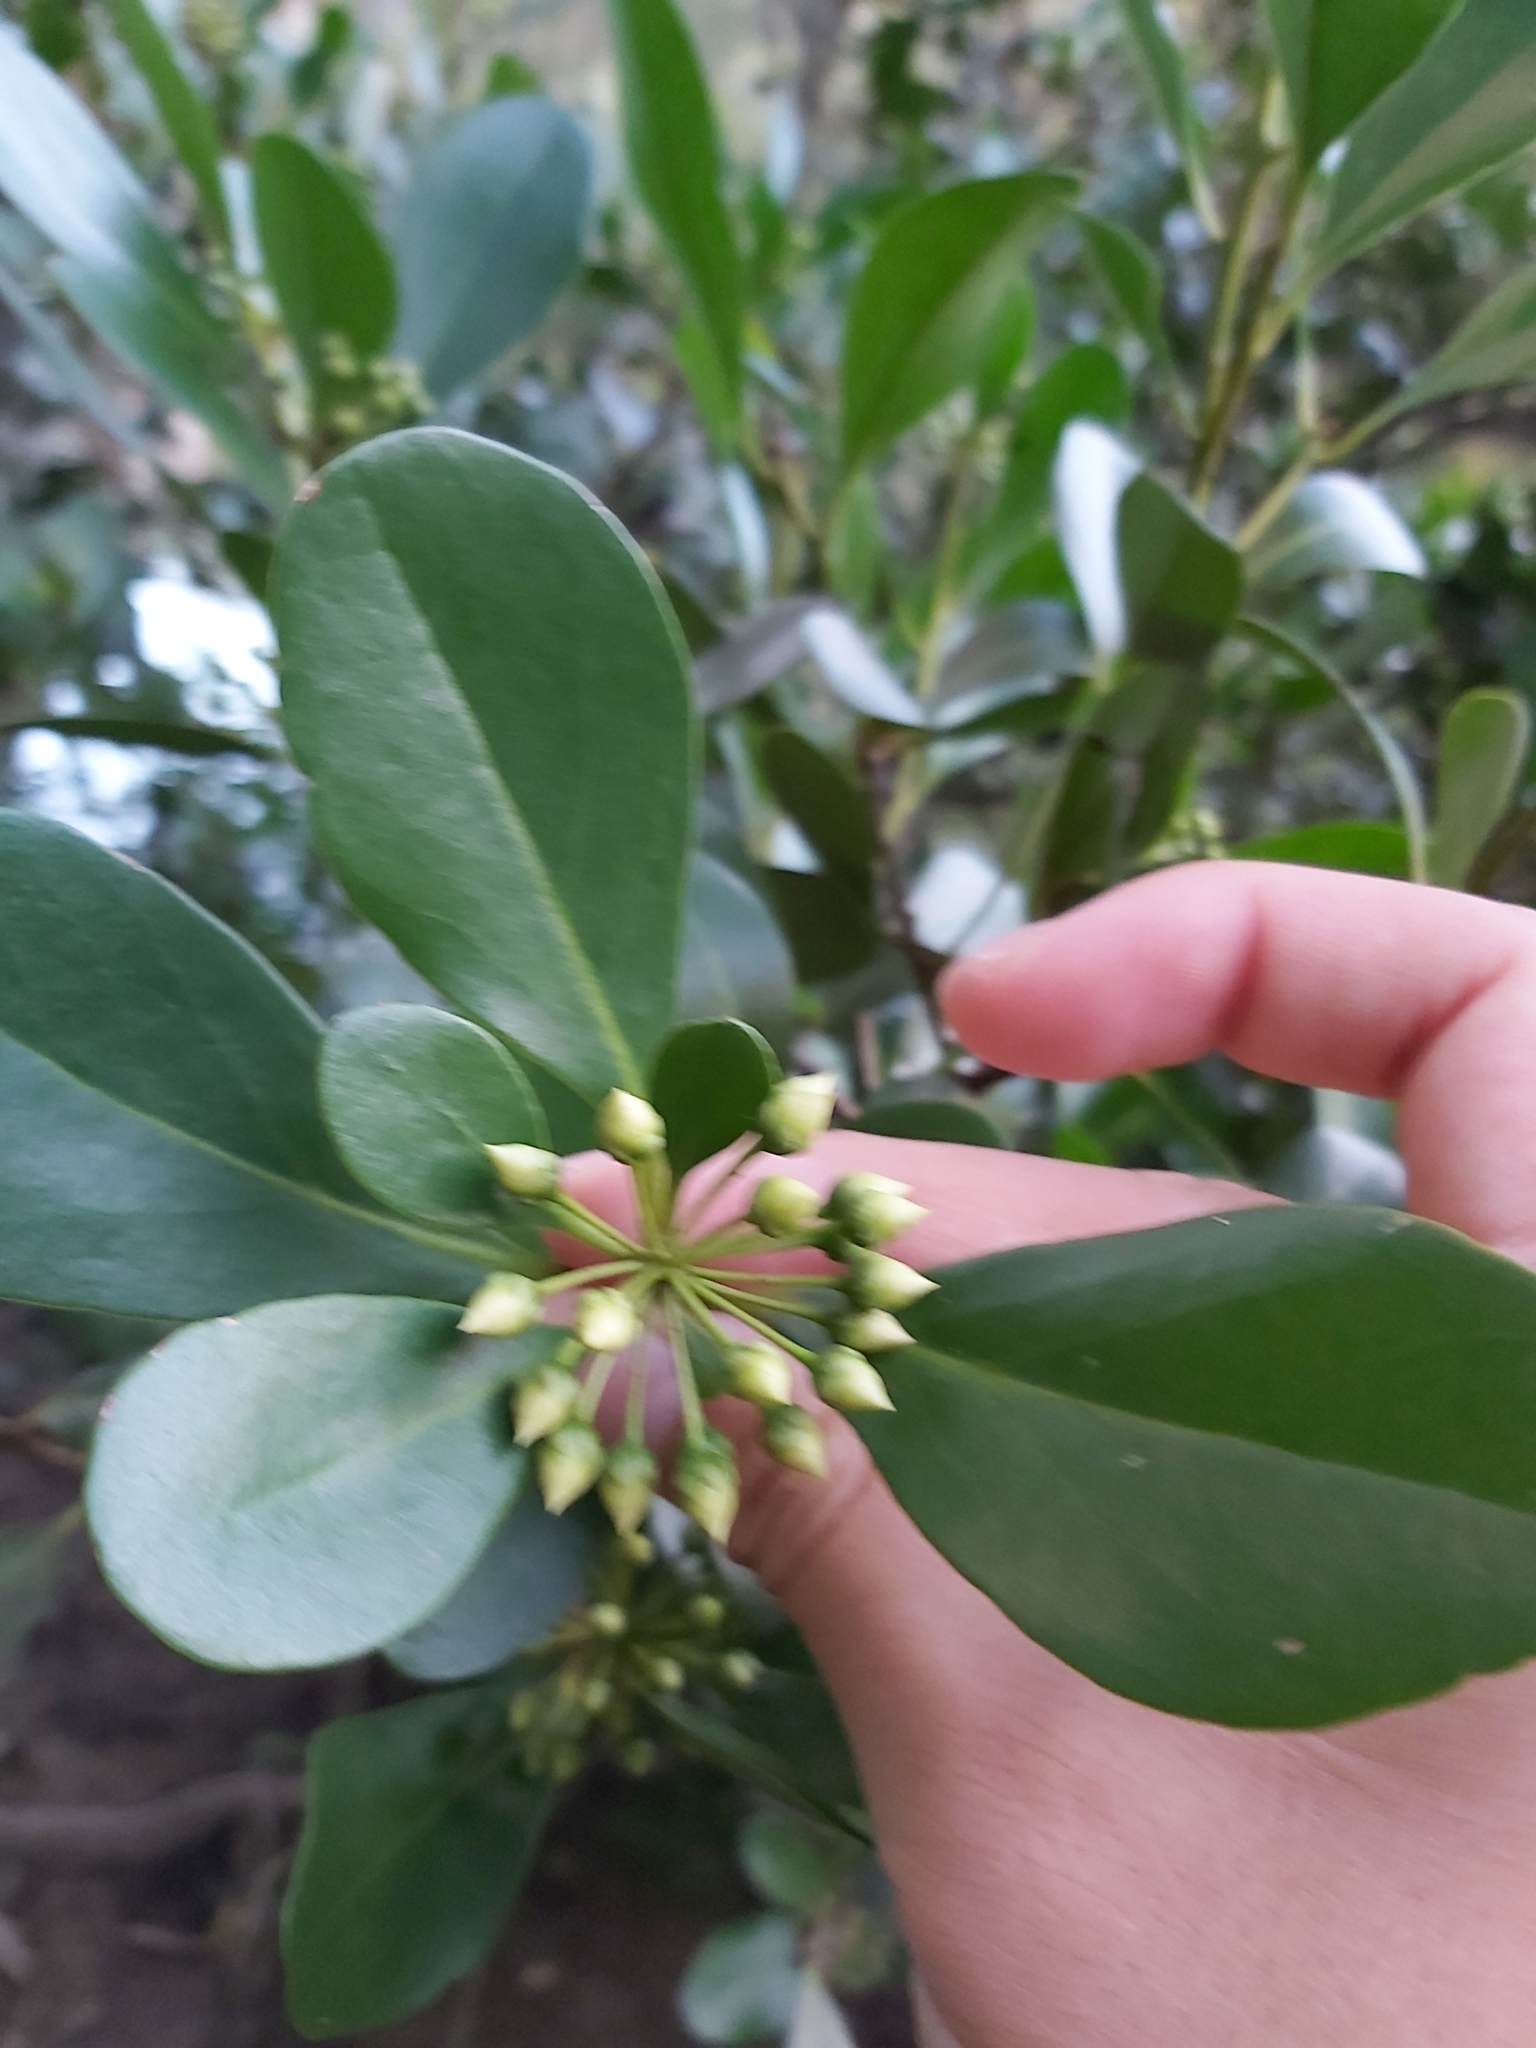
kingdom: Plantae
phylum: Tracheophyta
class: Magnoliopsida
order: Ericales
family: Primulaceae
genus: Aegiceras
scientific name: Aegiceras corniculatum
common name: River mangrove
